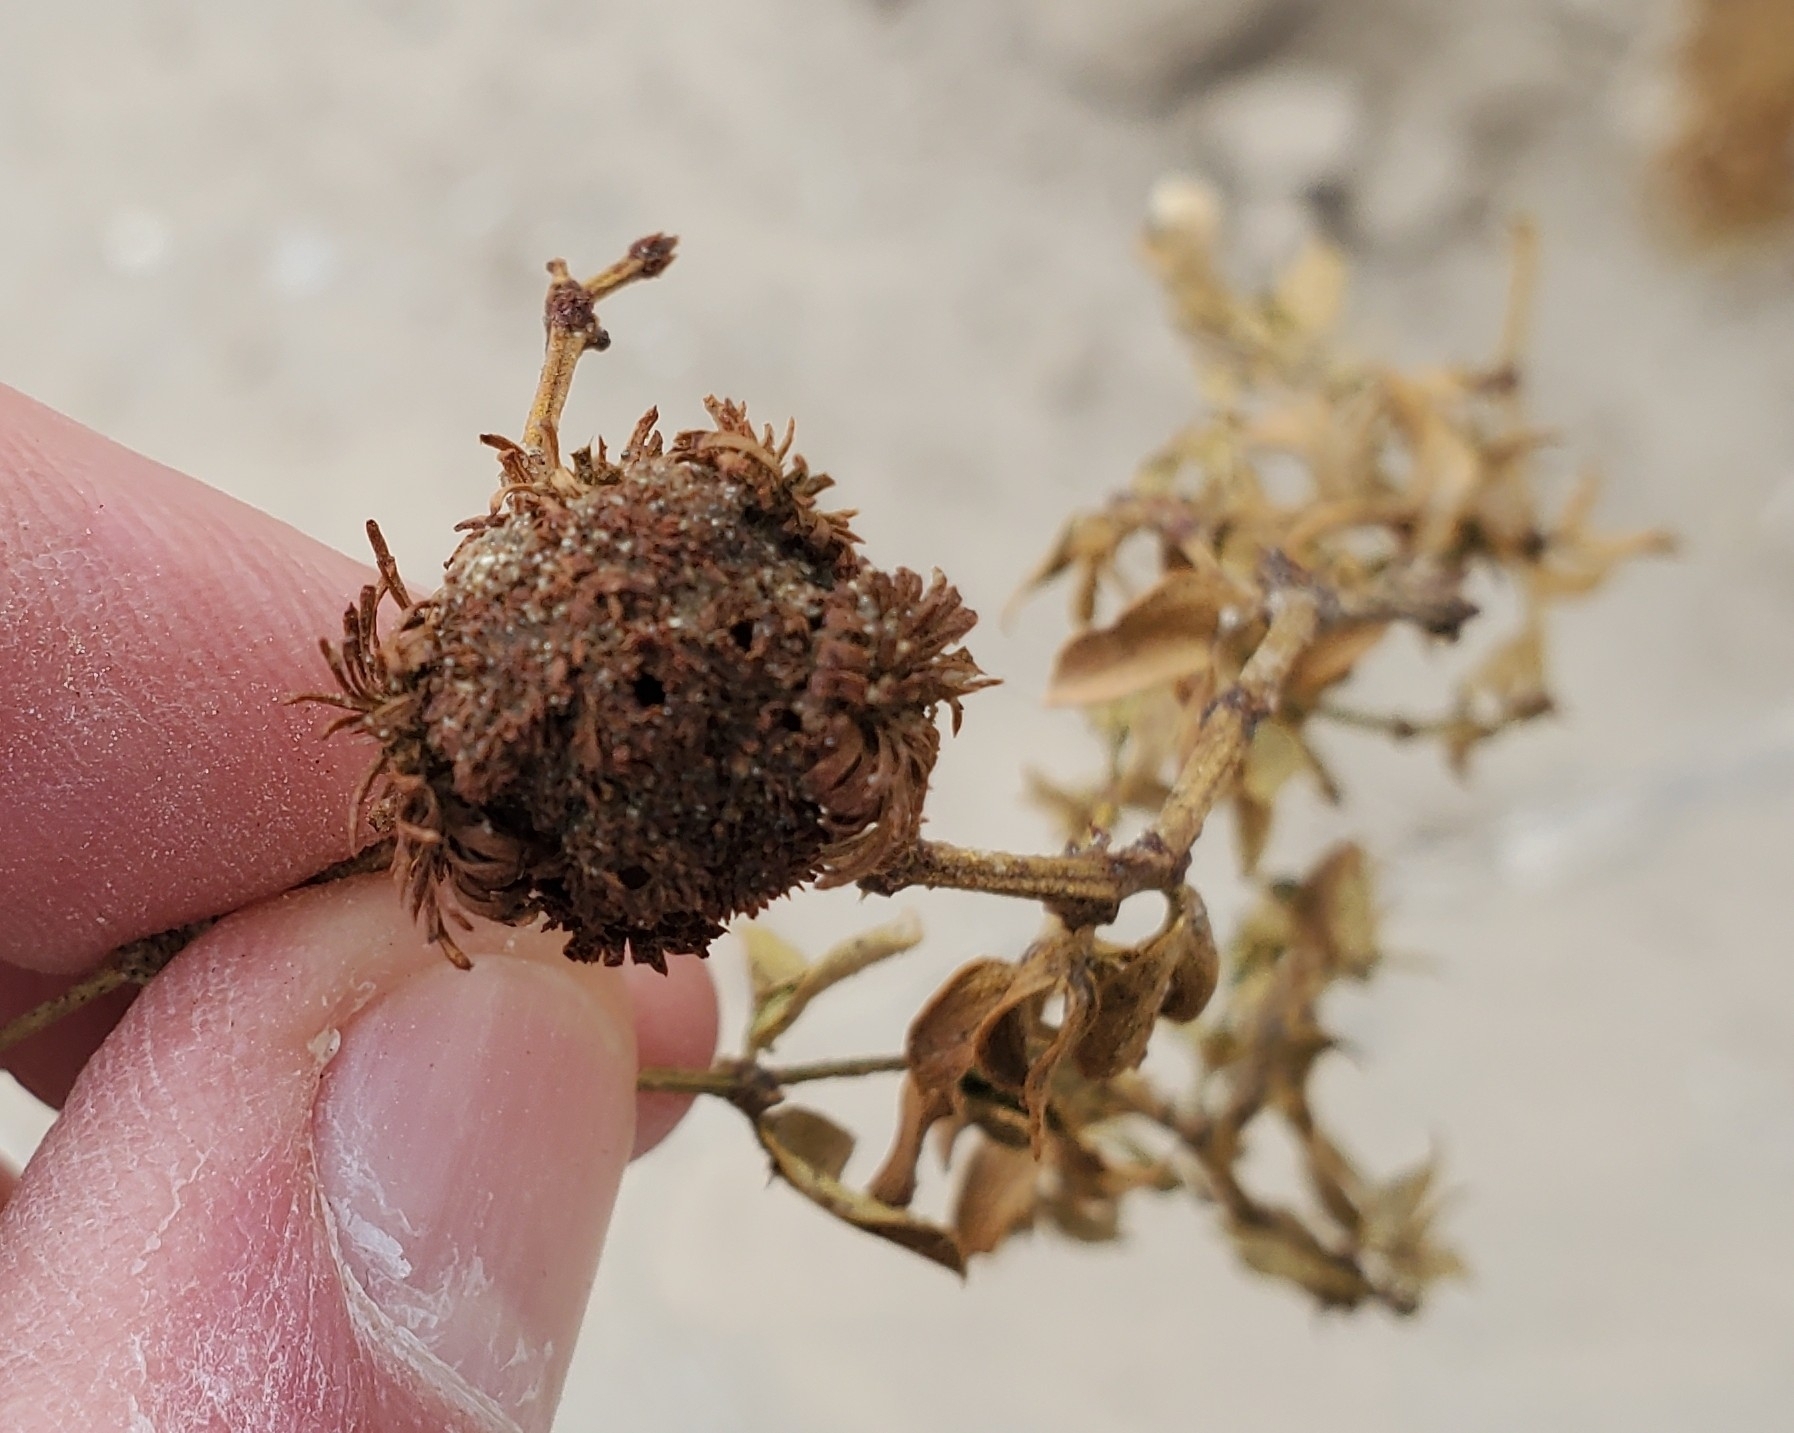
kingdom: Animalia
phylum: Arthropoda
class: Insecta
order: Diptera
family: Cecidomyiidae
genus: Asphondylia
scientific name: Asphondylia auripila
